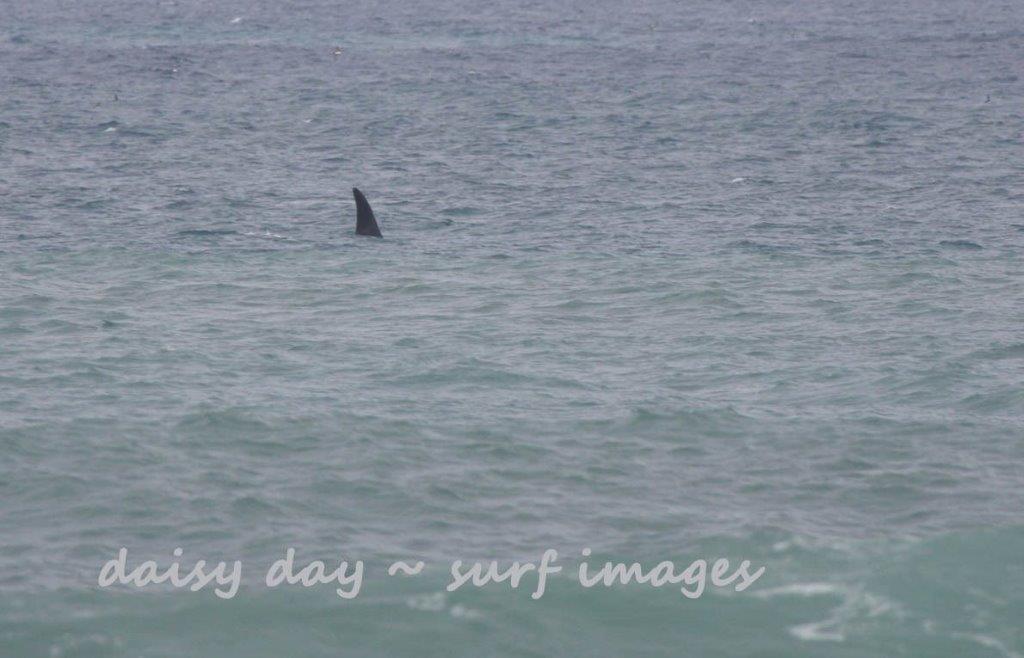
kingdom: Animalia
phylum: Chordata
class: Mammalia
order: Cetacea
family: Delphinidae
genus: Orcinus
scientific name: Orcinus orca
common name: Killer whale
